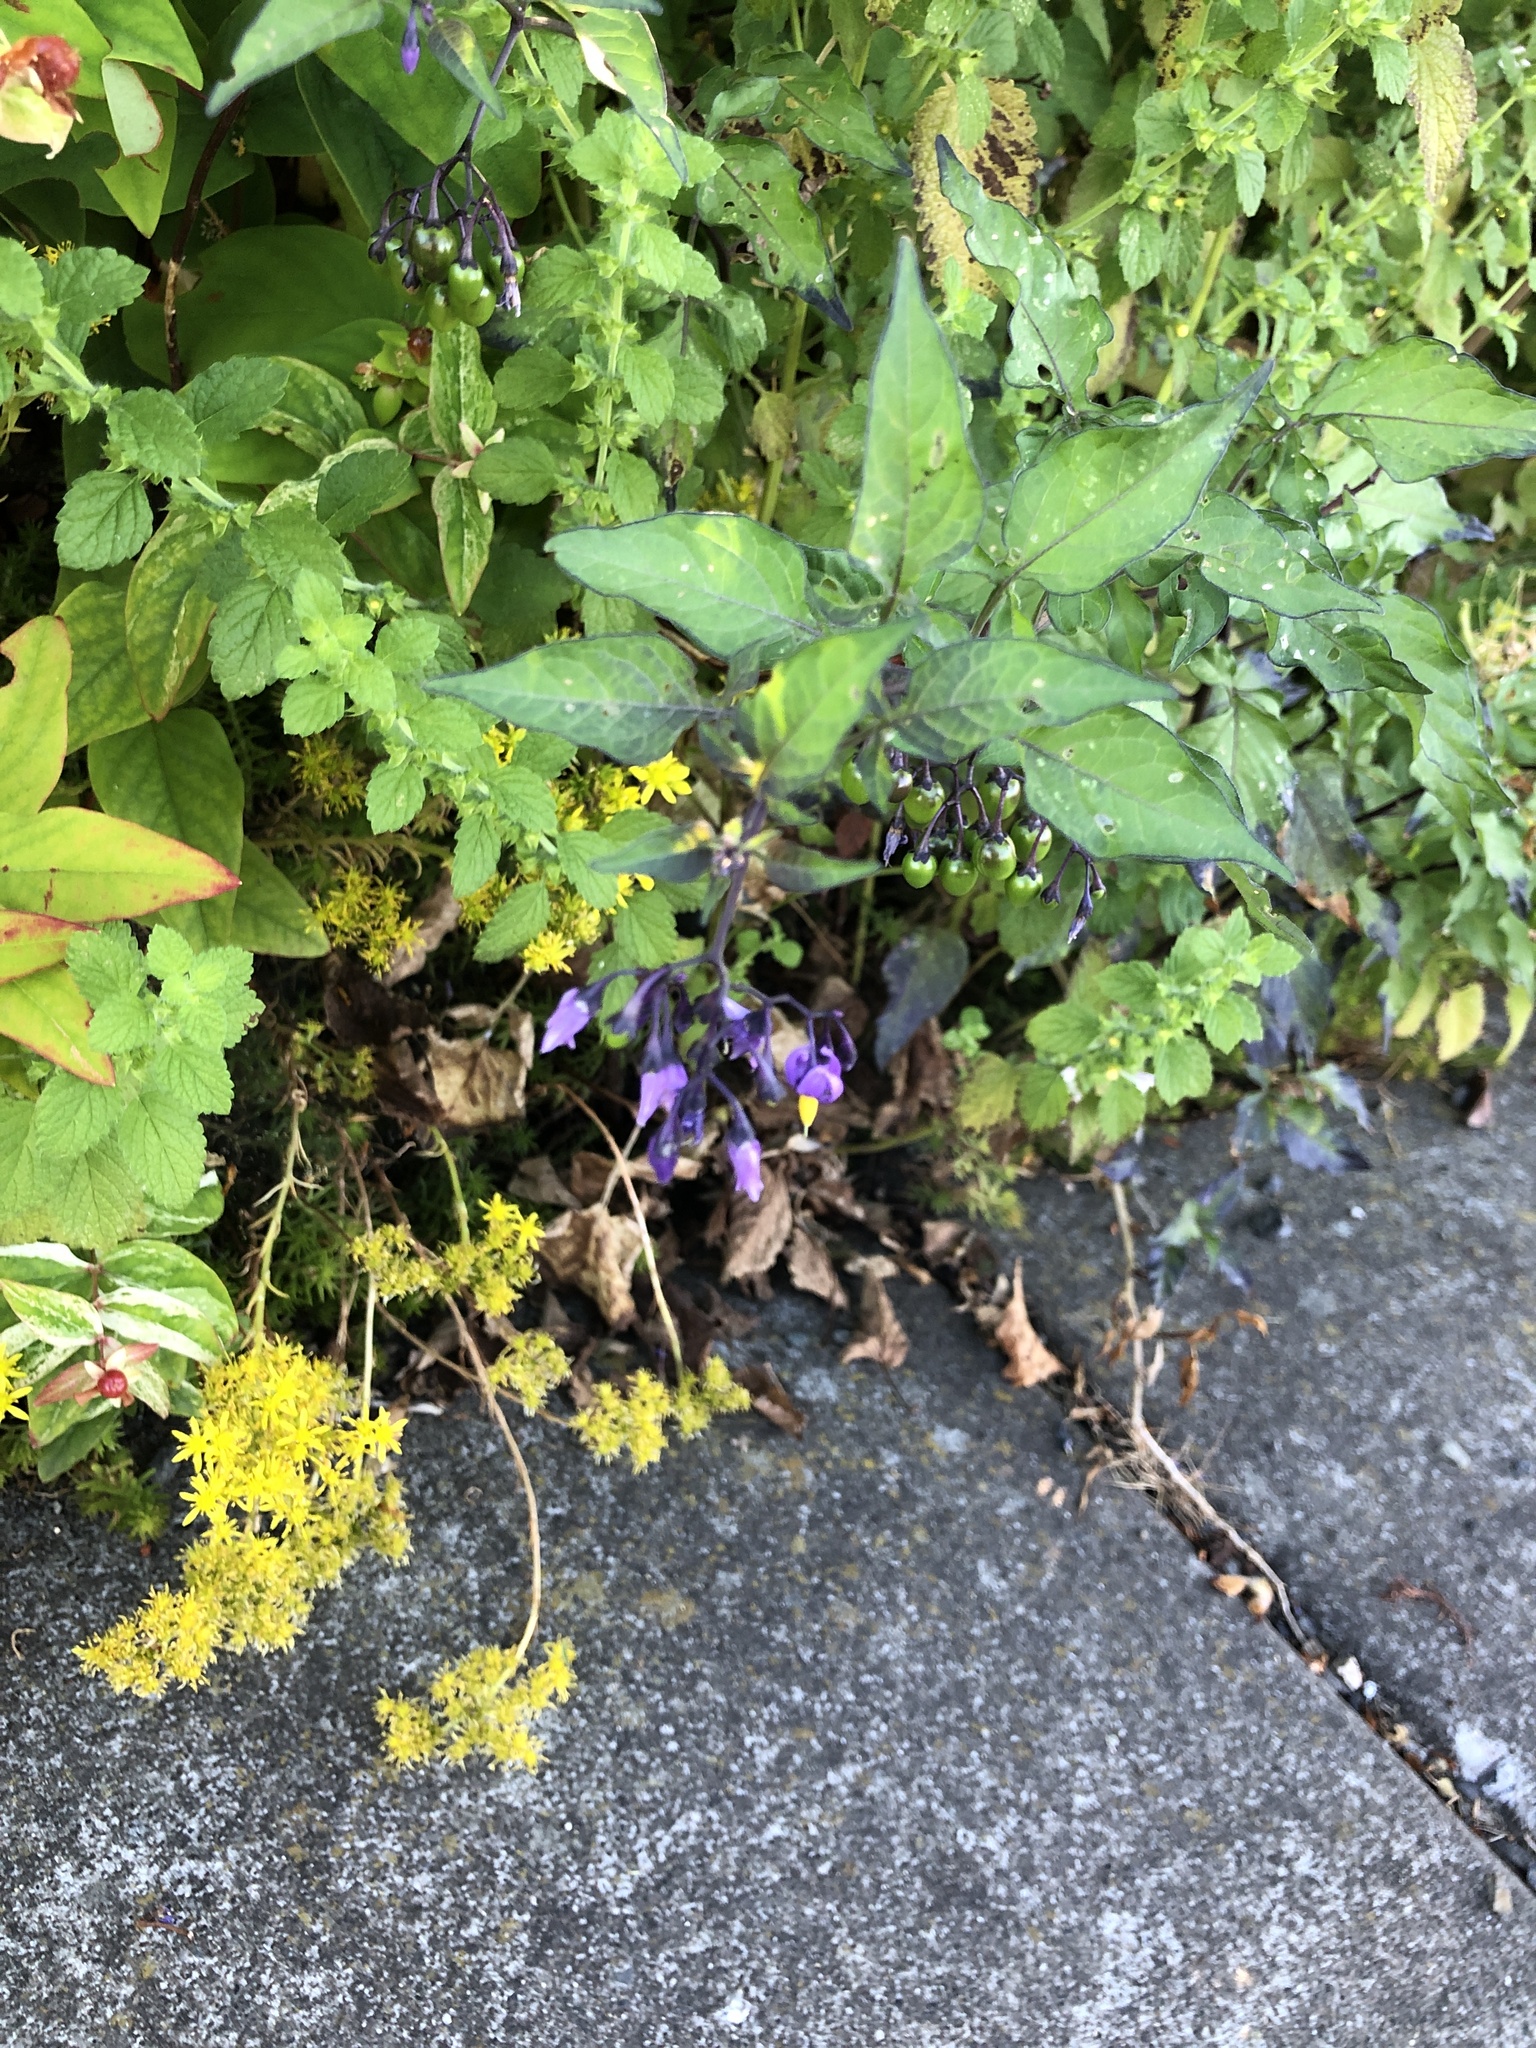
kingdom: Plantae
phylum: Tracheophyta
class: Magnoliopsida
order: Solanales
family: Solanaceae
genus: Solanum
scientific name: Solanum dulcamara
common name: Climbing nightshade
